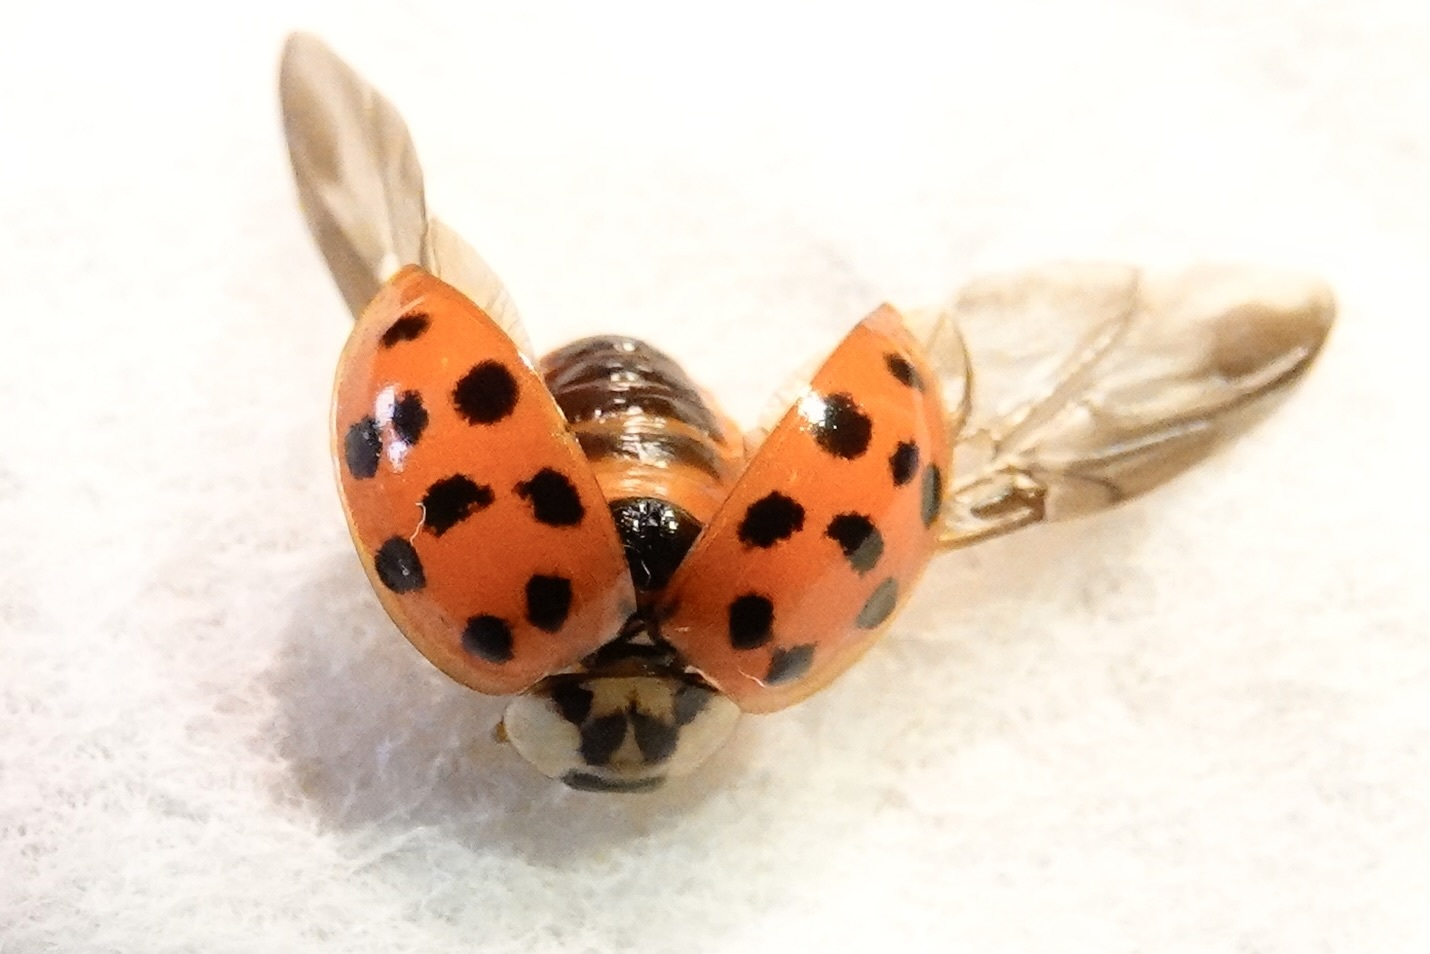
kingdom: Animalia
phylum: Arthropoda
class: Insecta
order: Coleoptera
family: Coccinellidae
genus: Harmonia
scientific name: Harmonia axyridis
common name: Harlequin ladybird
